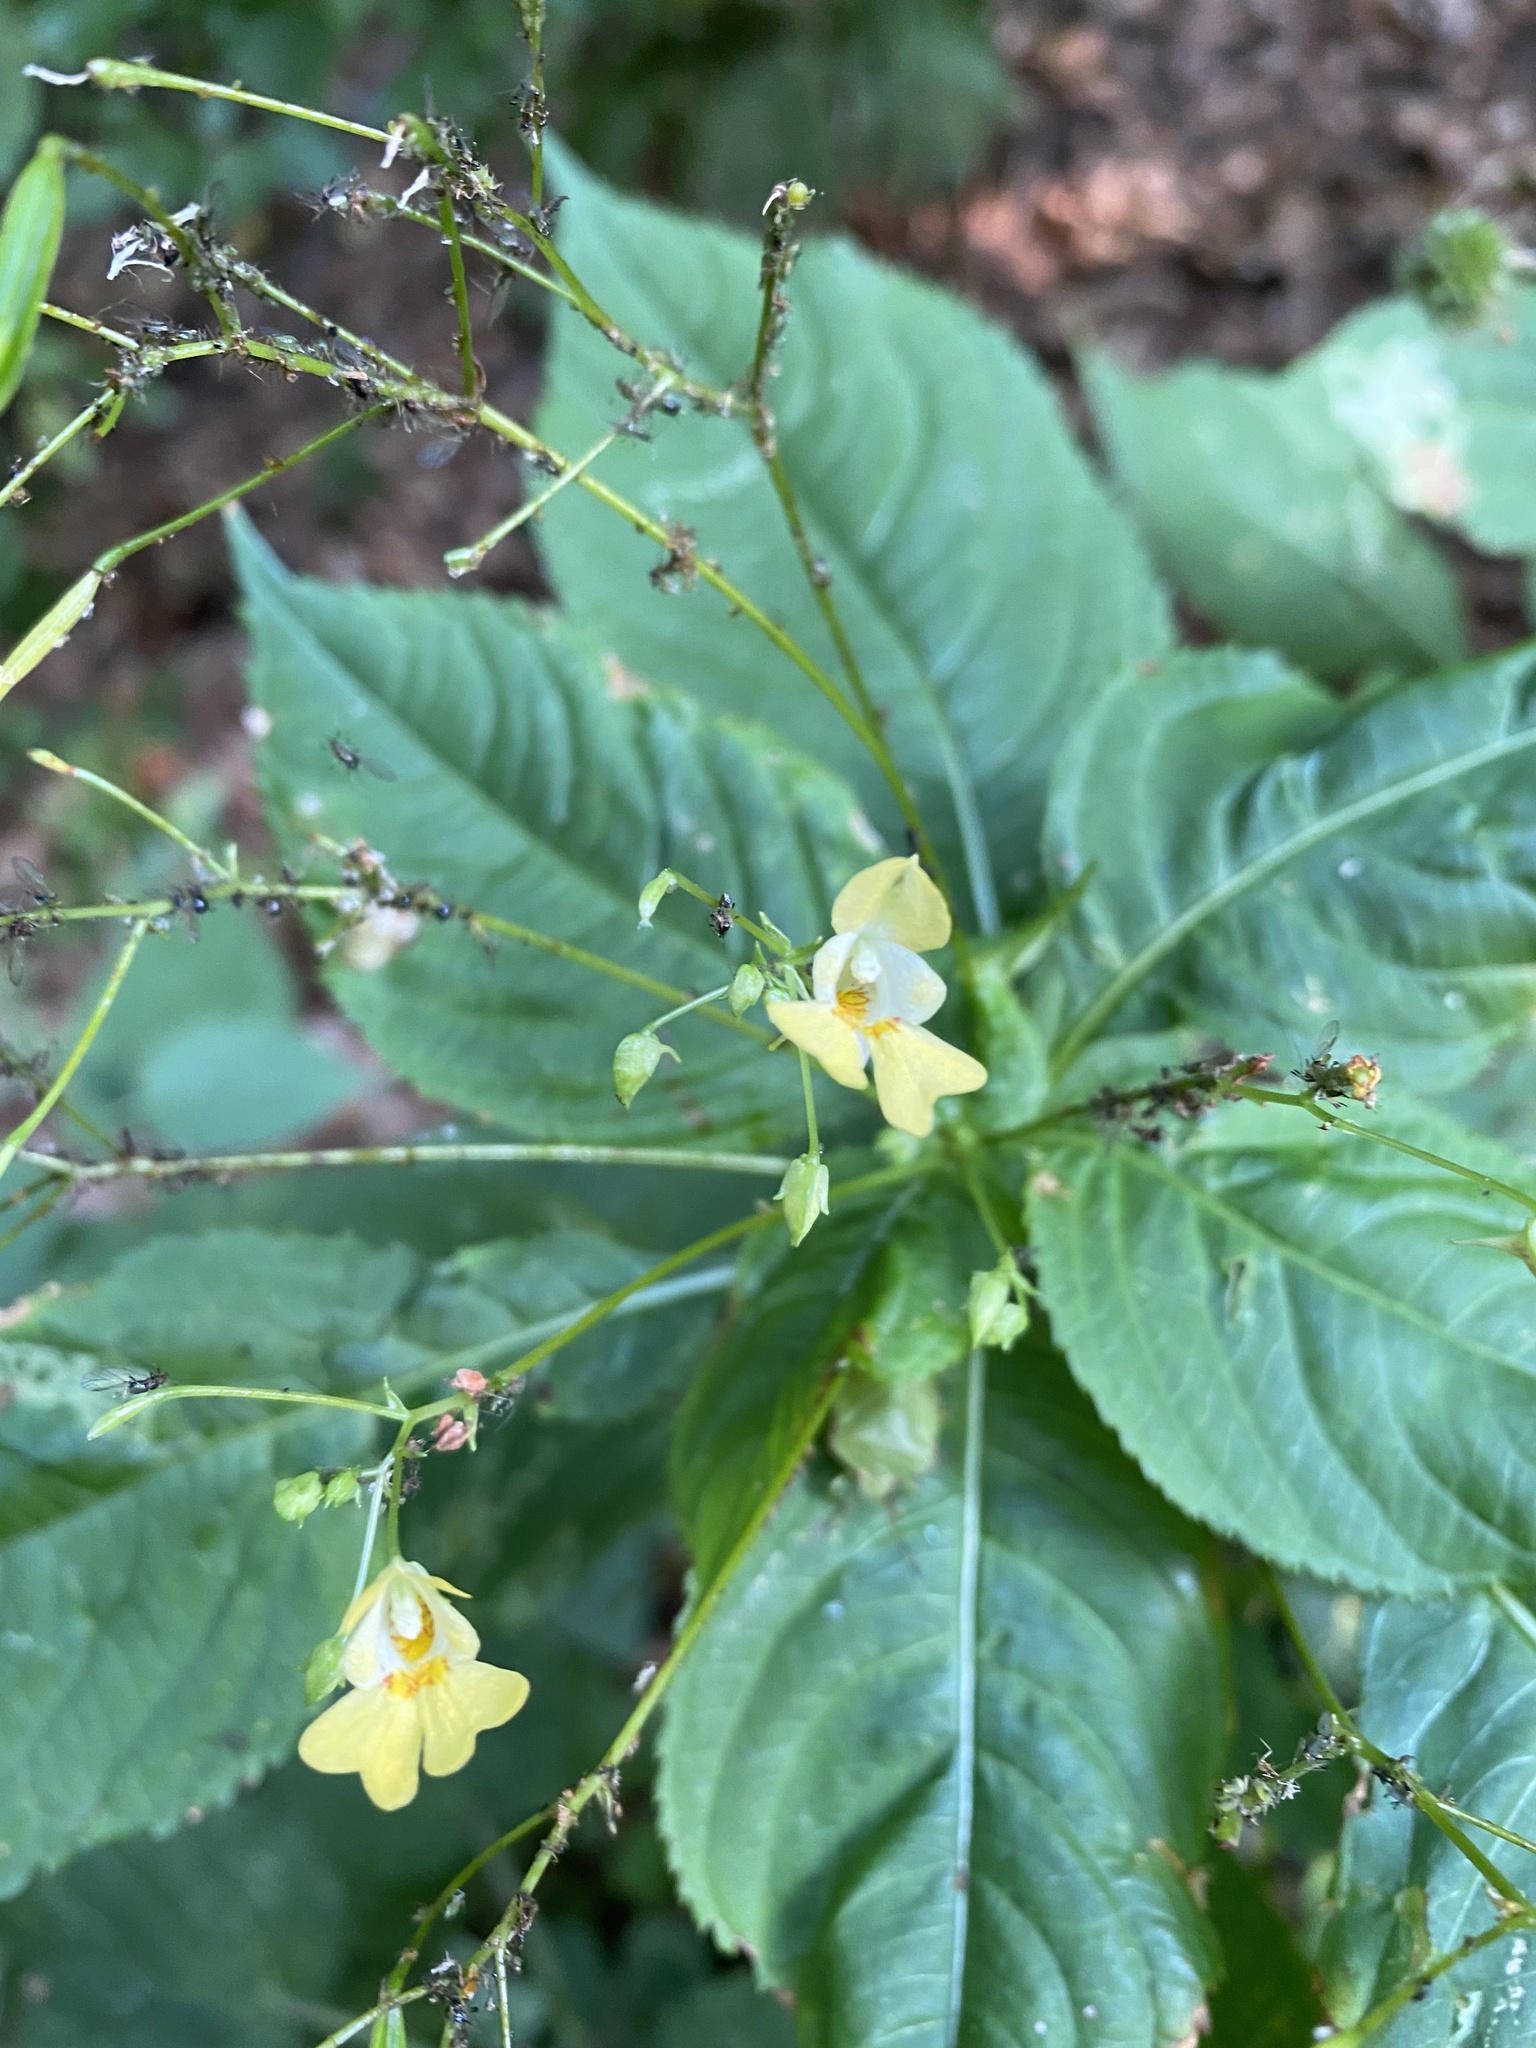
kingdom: Plantae
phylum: Tracheophyta
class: Magnoliopsida
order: Ericales
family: Balsaminaceae
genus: Impatiens
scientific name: Impatiens parviflora
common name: Small balsam
